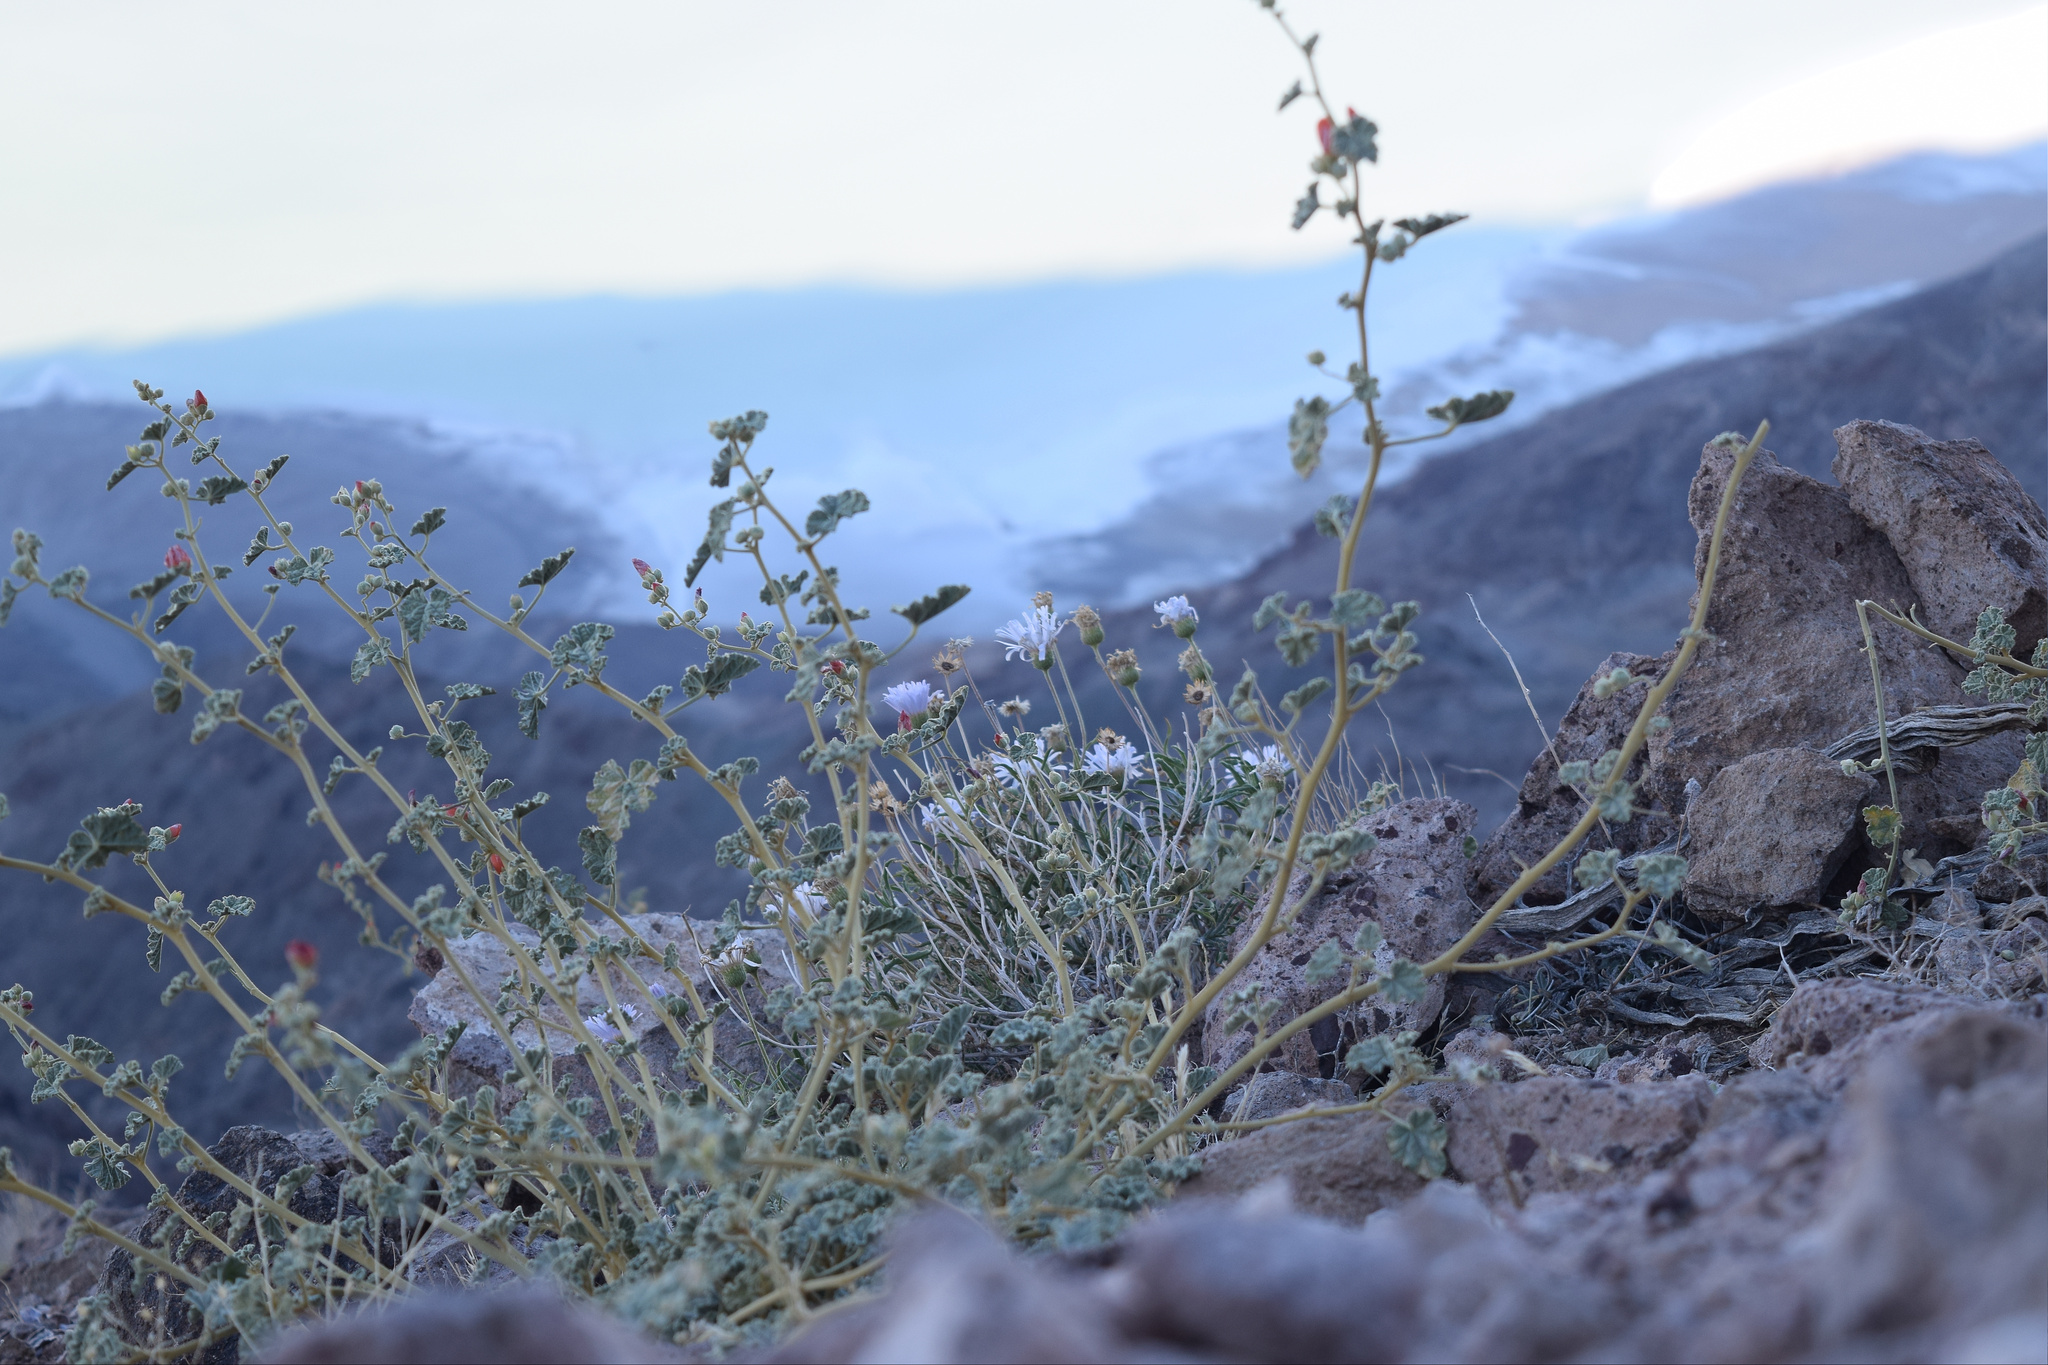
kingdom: Plantae
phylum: Tracheophyta
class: Magnoliopsida
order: Malvales
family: Malvaceae
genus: Sphaeralcea
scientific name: Sphaeralcea ambigua
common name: Apricot globe-mallow
